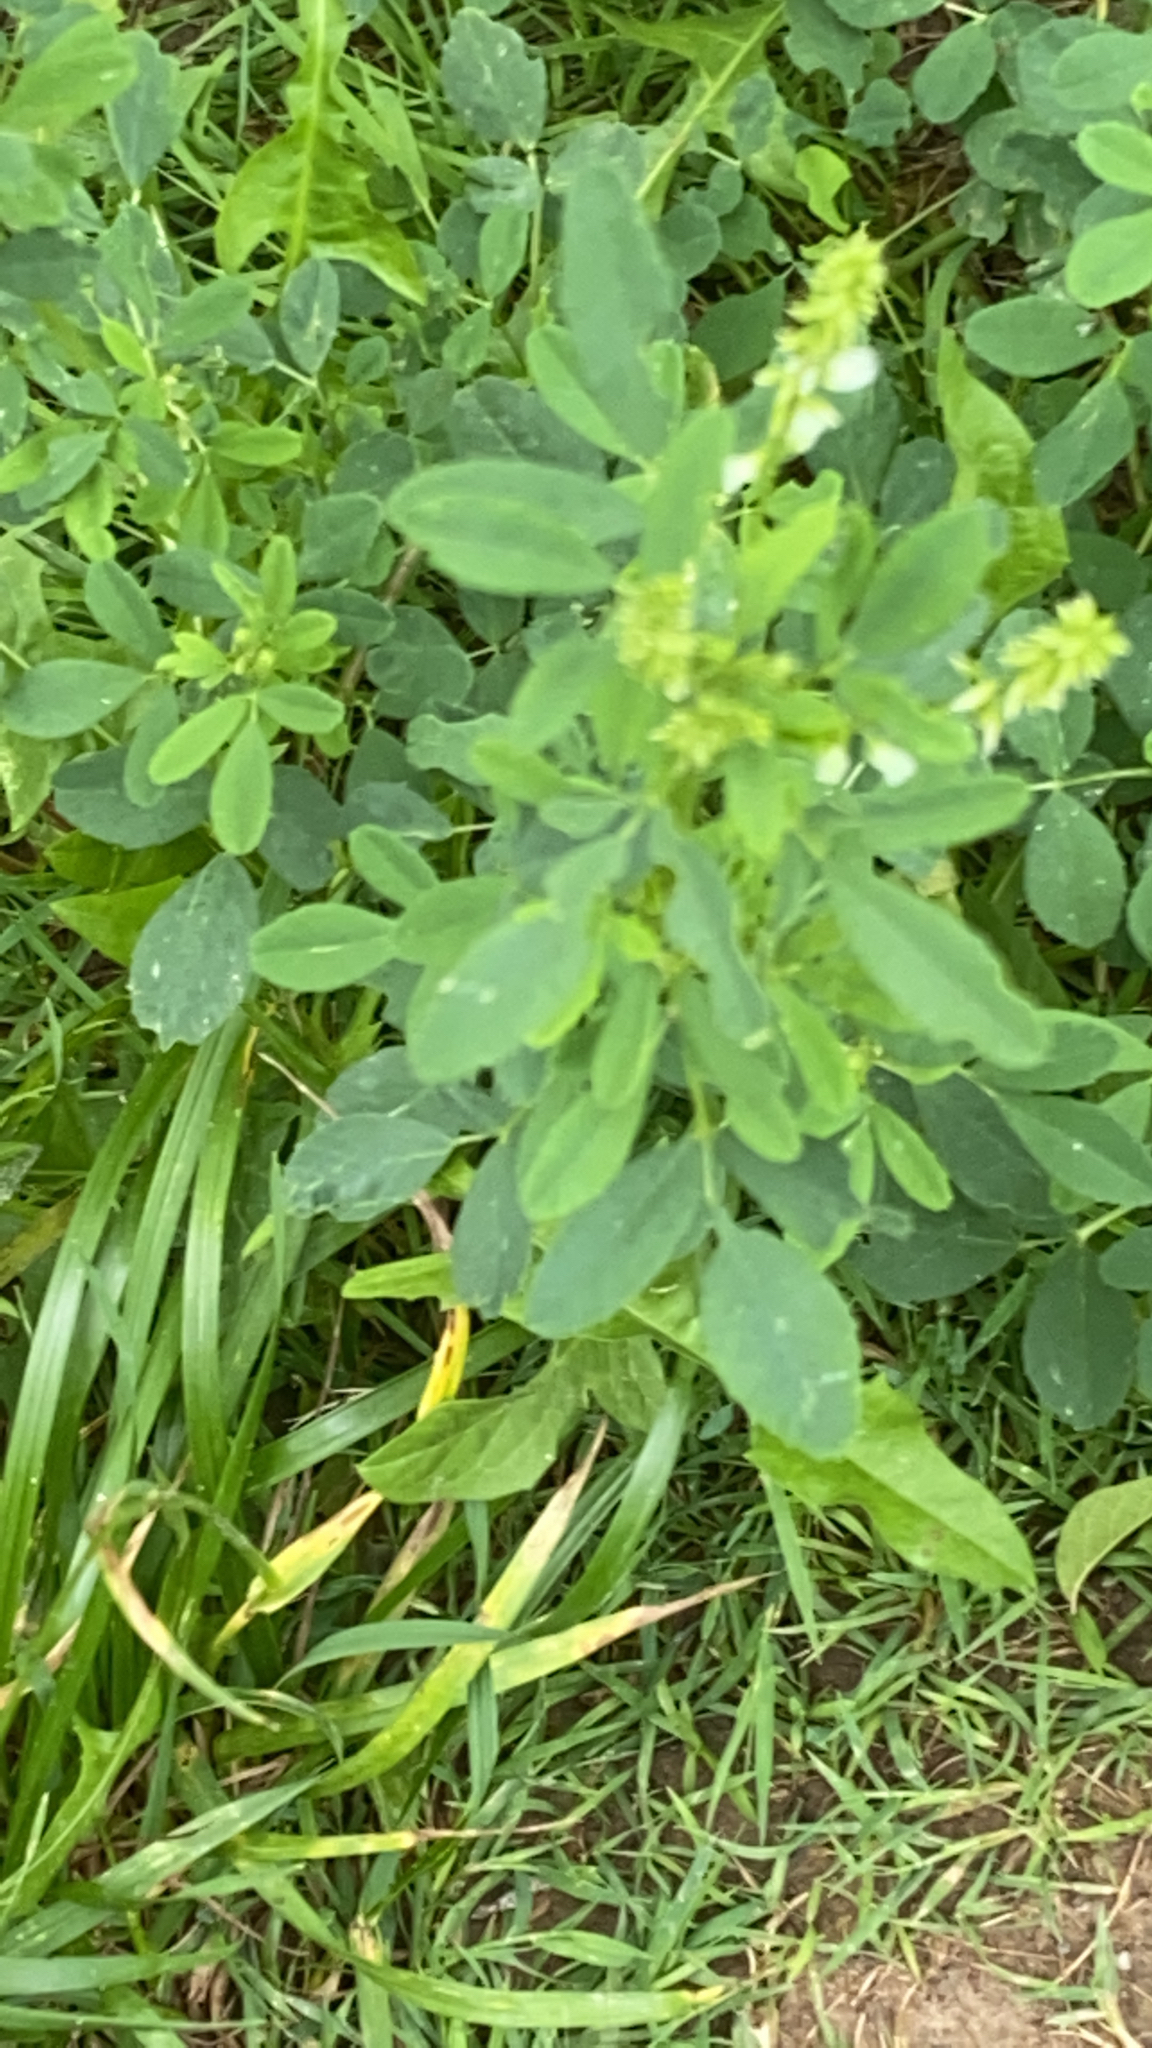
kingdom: Plantae
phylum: Tracheophyta
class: Magnoliopsida
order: Fabales
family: Fabaceae
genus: Melilotus
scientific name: Melilotus albus
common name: White melilot
